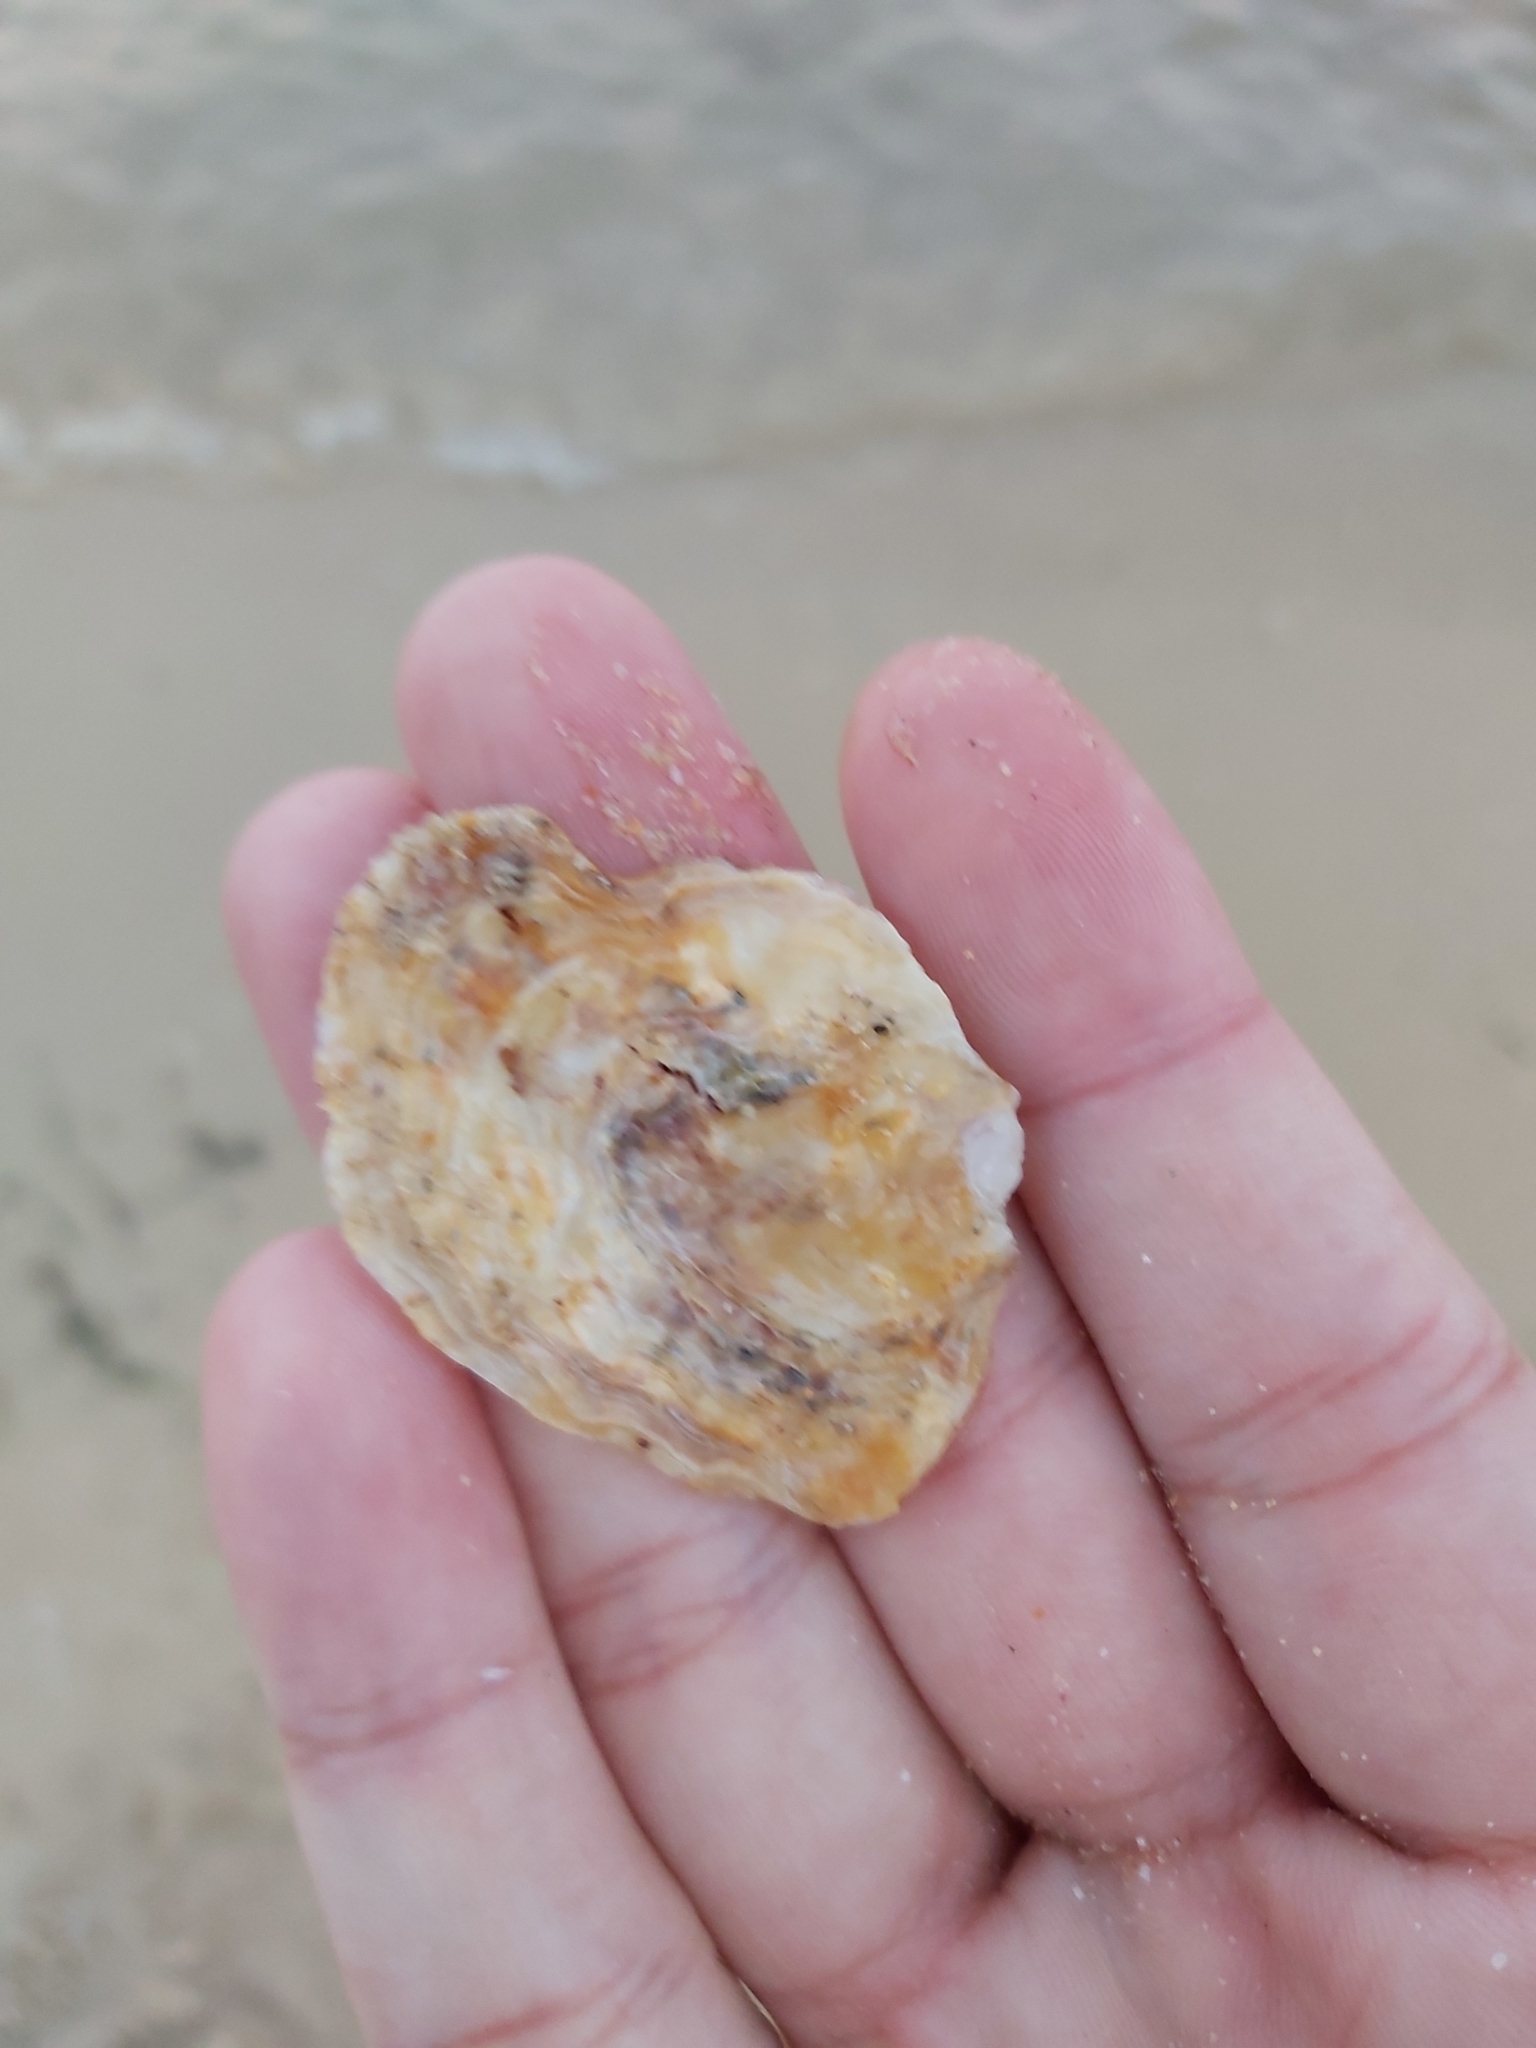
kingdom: Animalia
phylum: Mollusca
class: Bivalvia
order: Ostreida
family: Ostreidae
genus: Saccostrea
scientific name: Saccostrea glomerata
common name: Sydney cupped oyster
